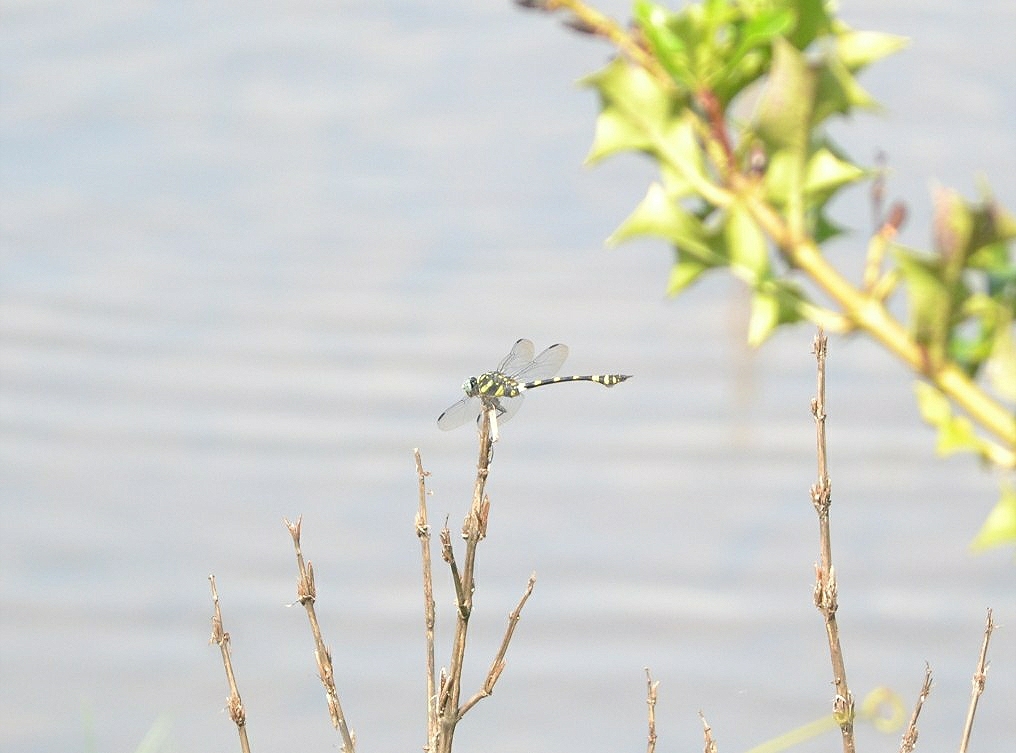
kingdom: Animalia
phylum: Arthropoda
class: Insecta
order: Odonata
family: Gomphidae
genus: Ictinogomphus
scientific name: Ictinogomphus rapax
